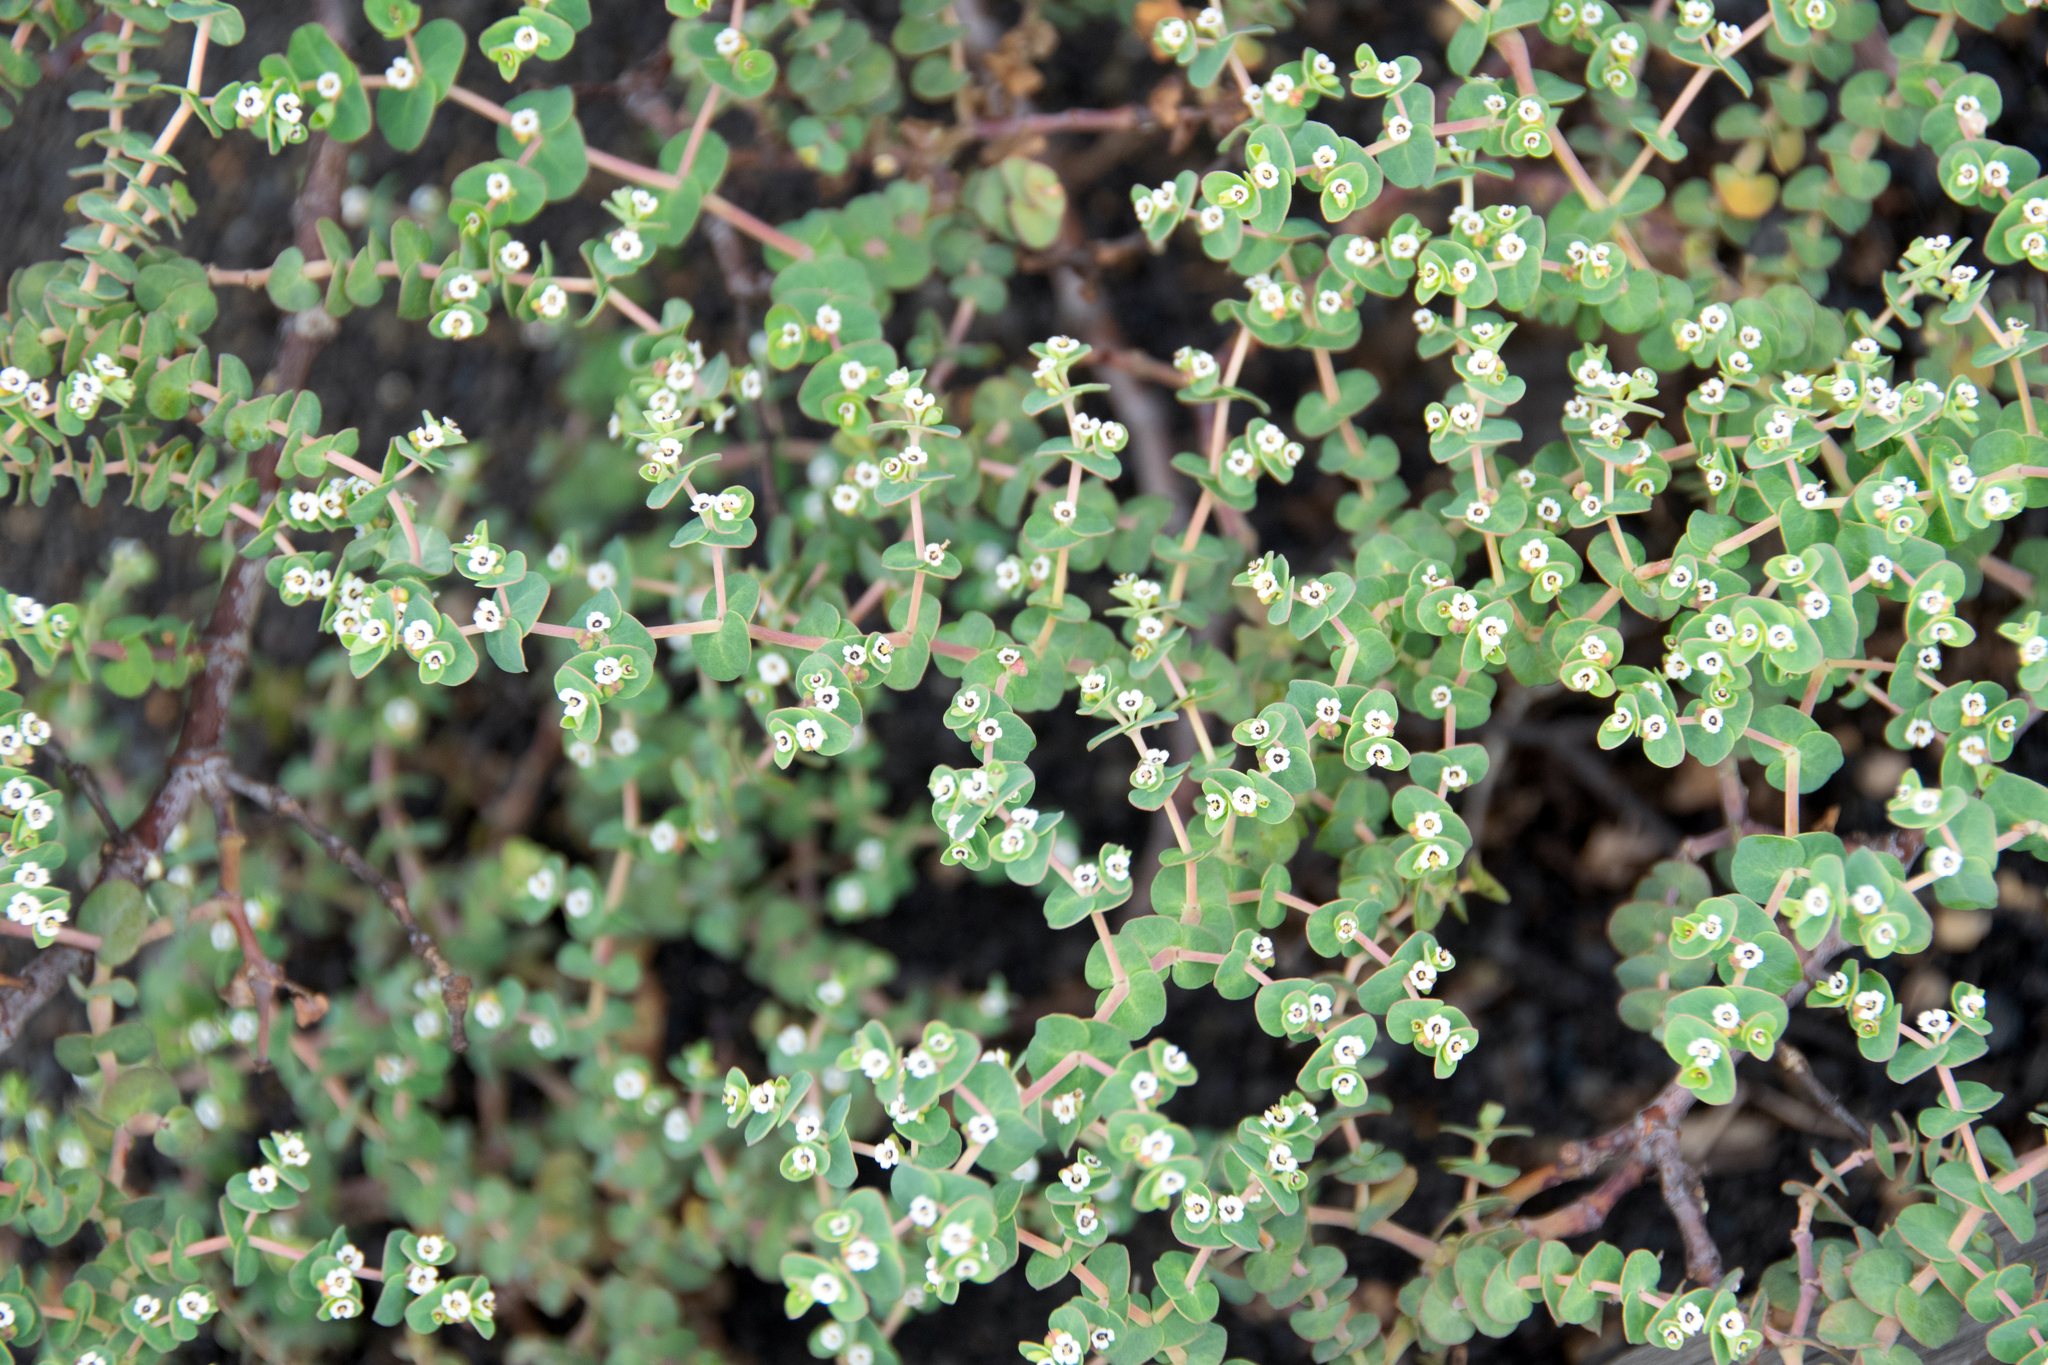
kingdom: Plantae
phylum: Tracheophyta
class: Magnoliopsida
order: Malpighiales
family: Euphorbiaceae
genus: Euphorbia
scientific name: Euphorbia amplexicaulis
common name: Chamaesyce
